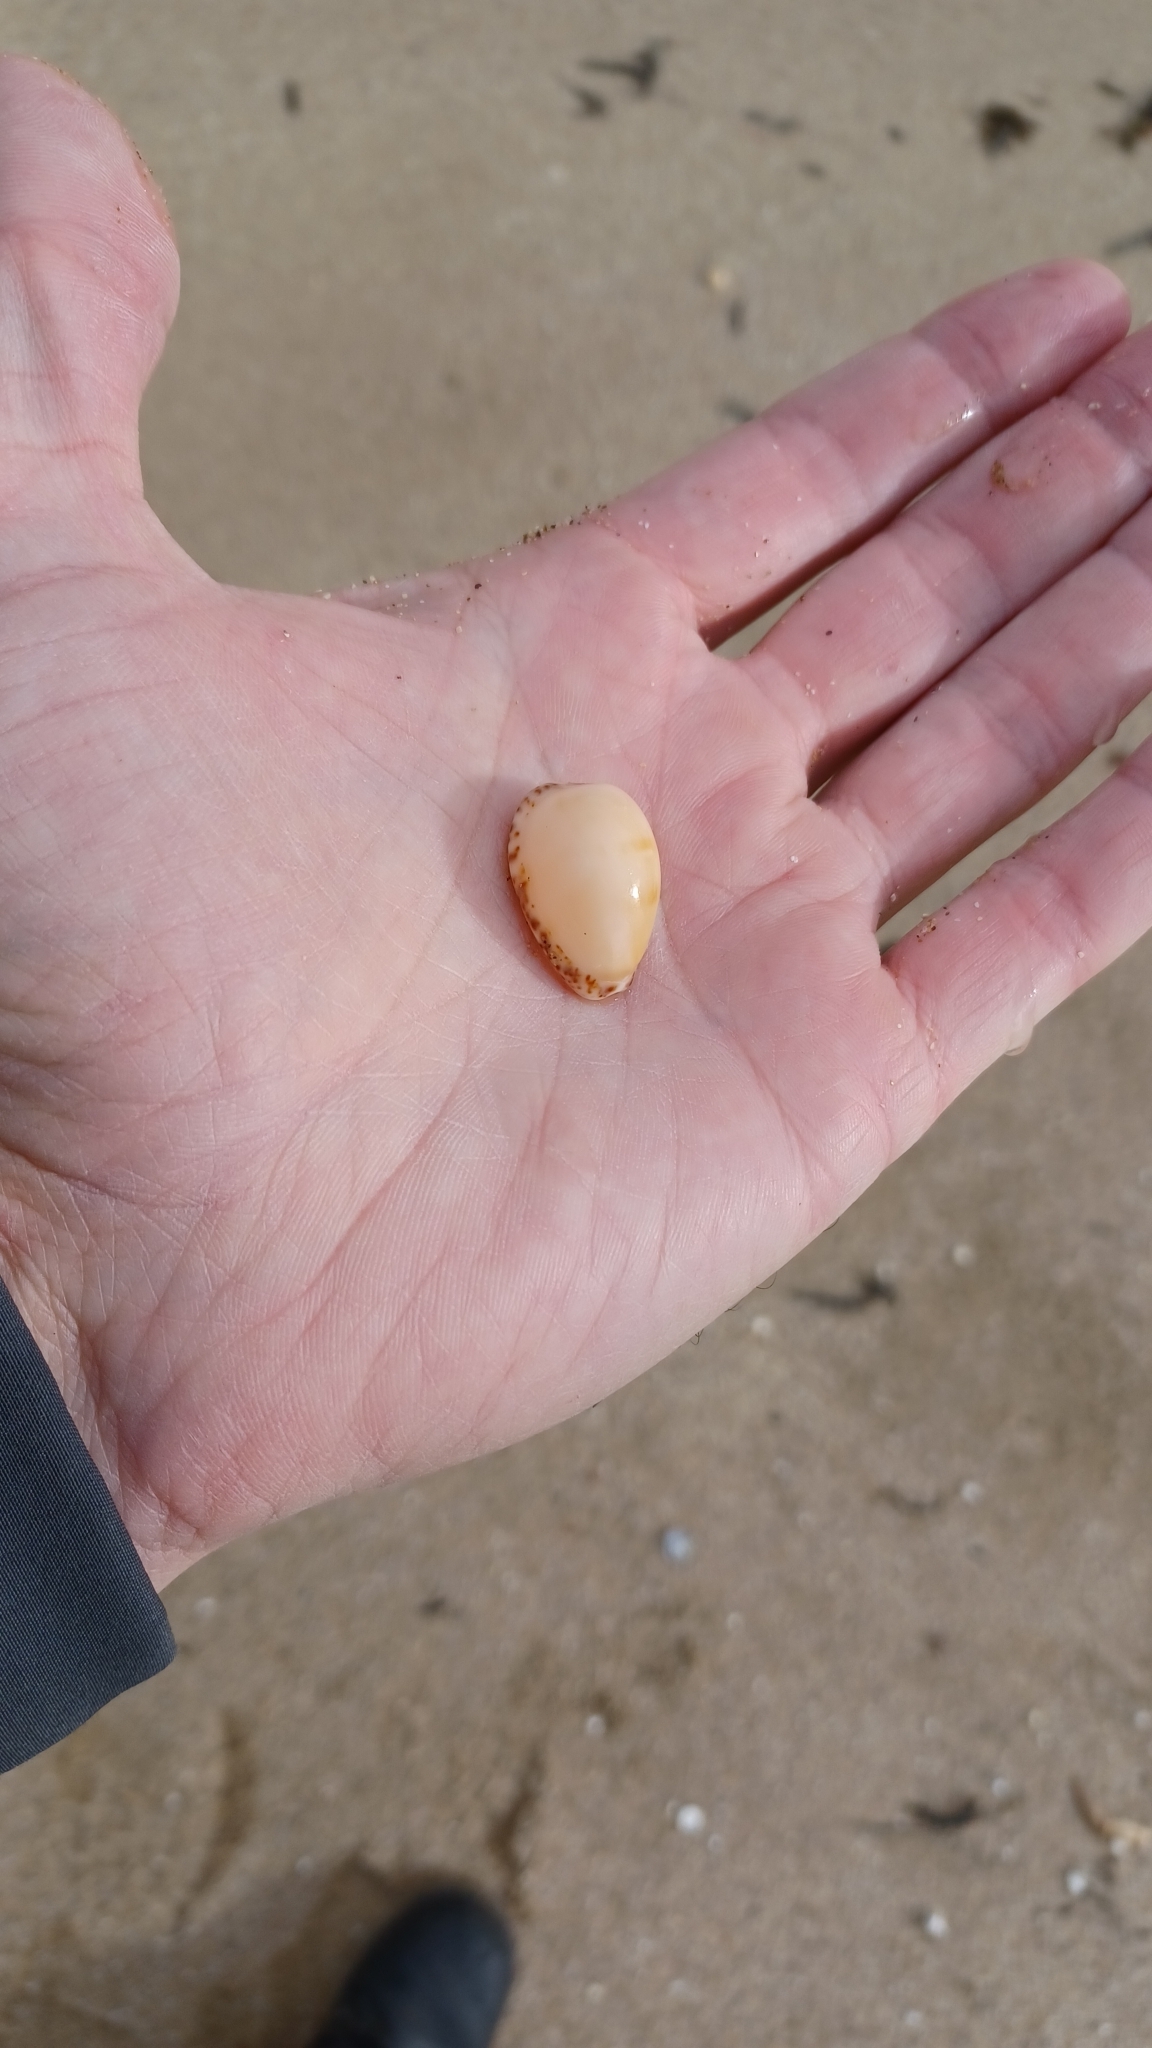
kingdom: Animalia
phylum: Mollusca
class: Gastropoda
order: Littorinimorpha
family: Cypraeidae
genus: Notocypraea
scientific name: Notocypraea comptonii
